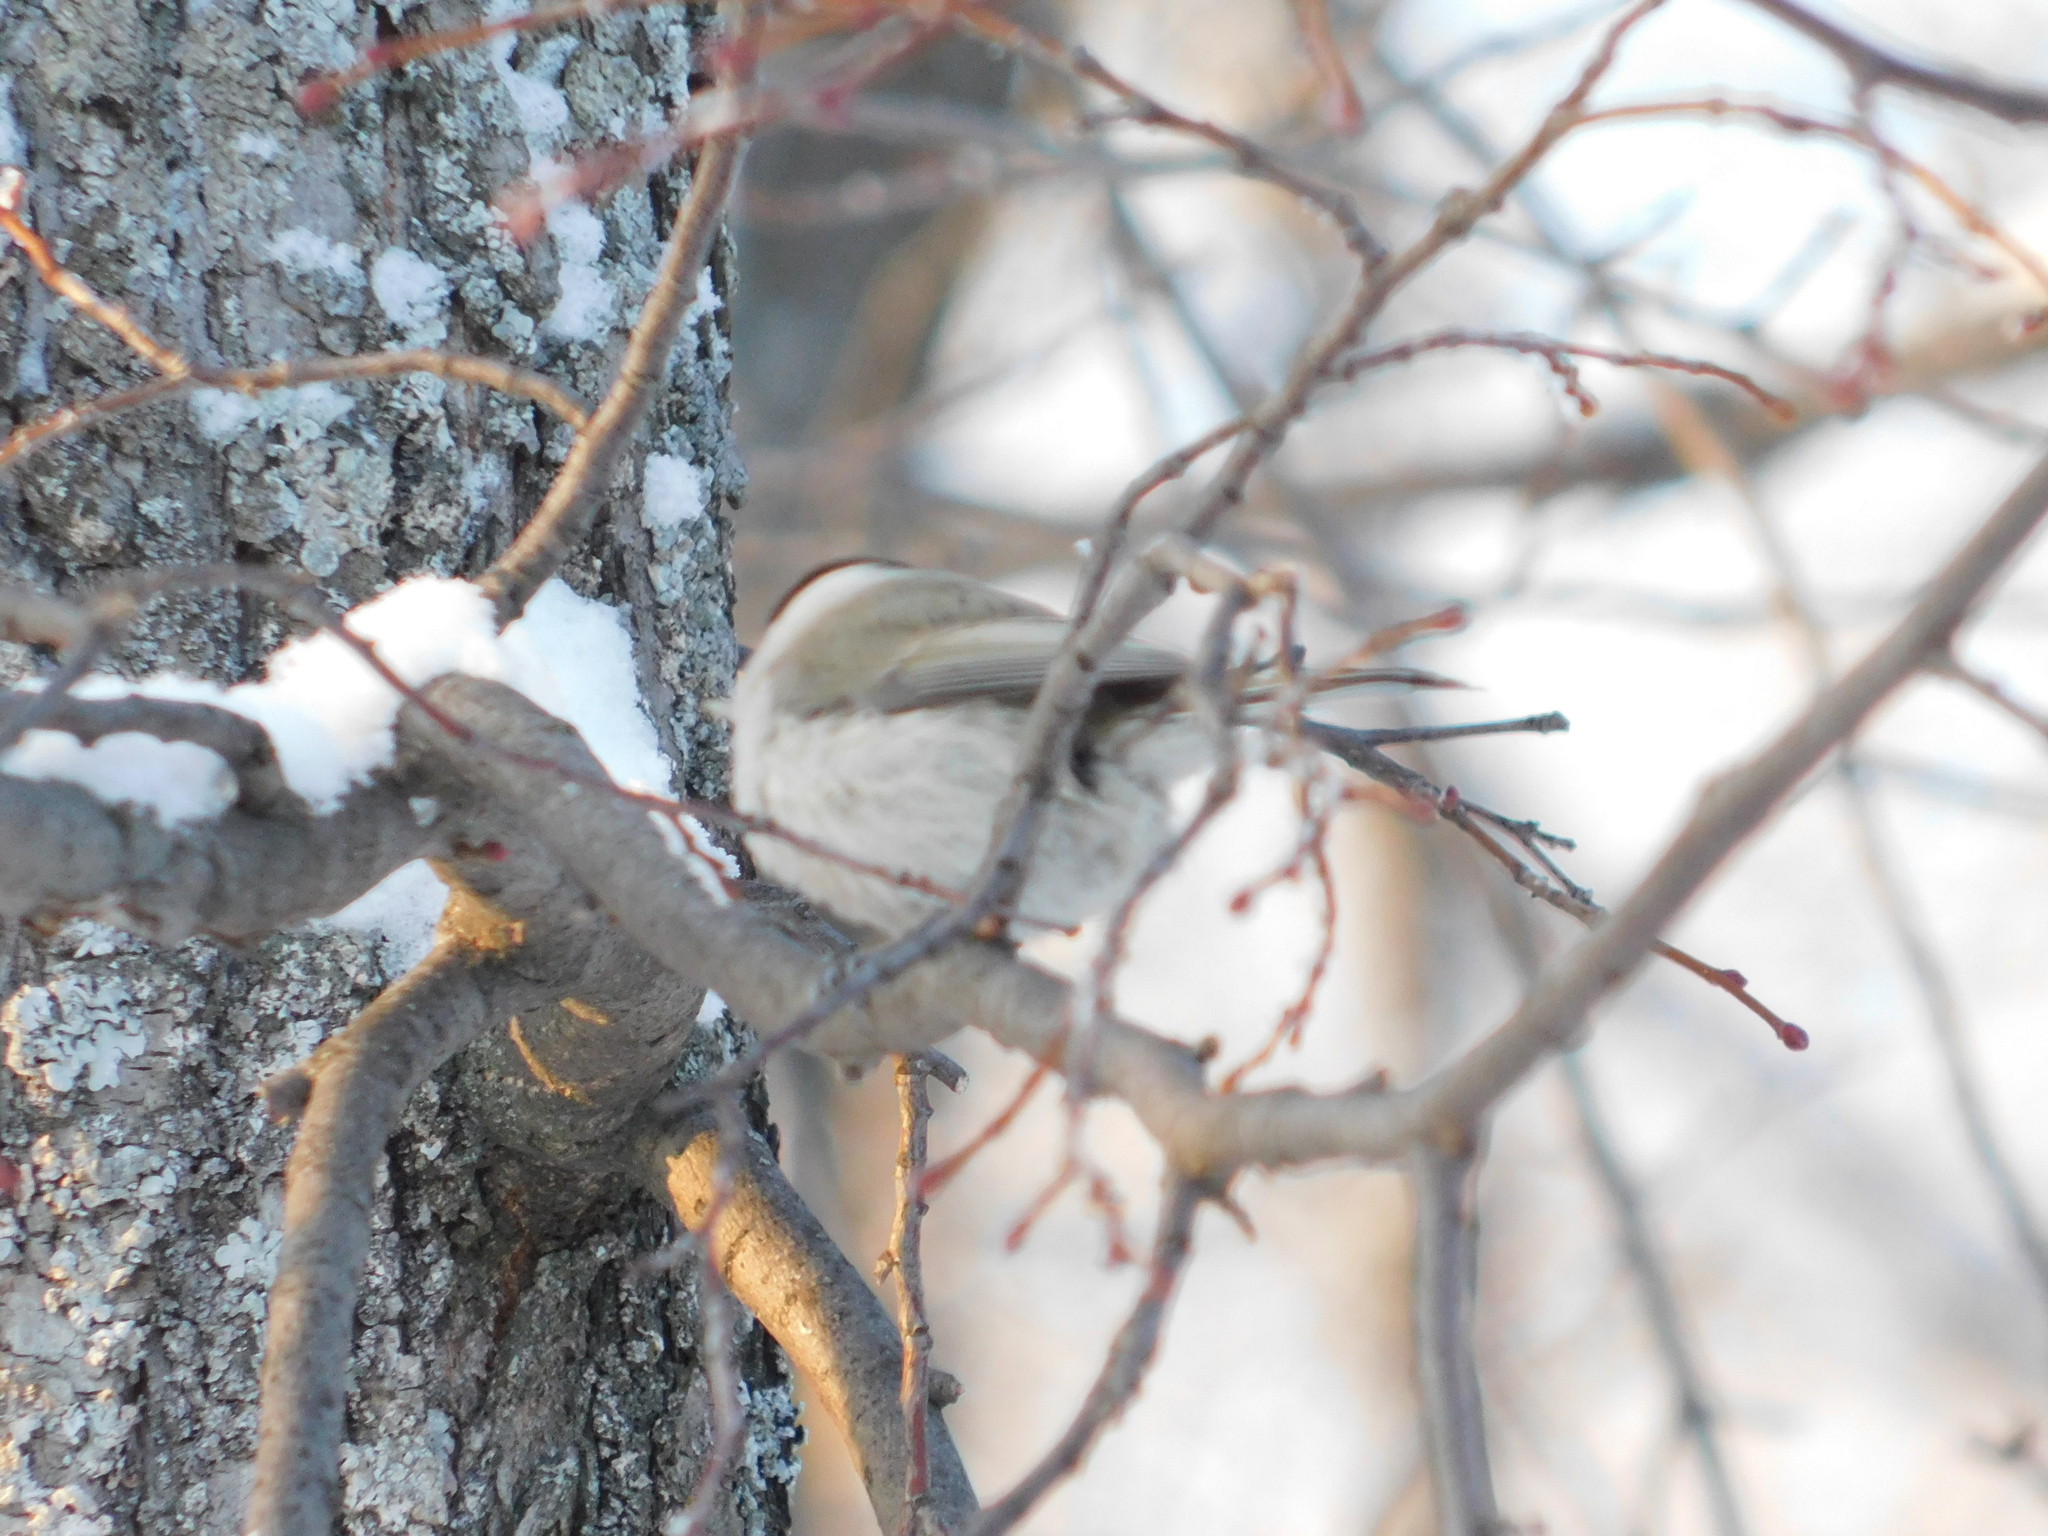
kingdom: Animalia
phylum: Chordata
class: Aves
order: Passeriformes
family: Paridae
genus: Poecile
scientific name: Poecile montanus
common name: Willow tit
